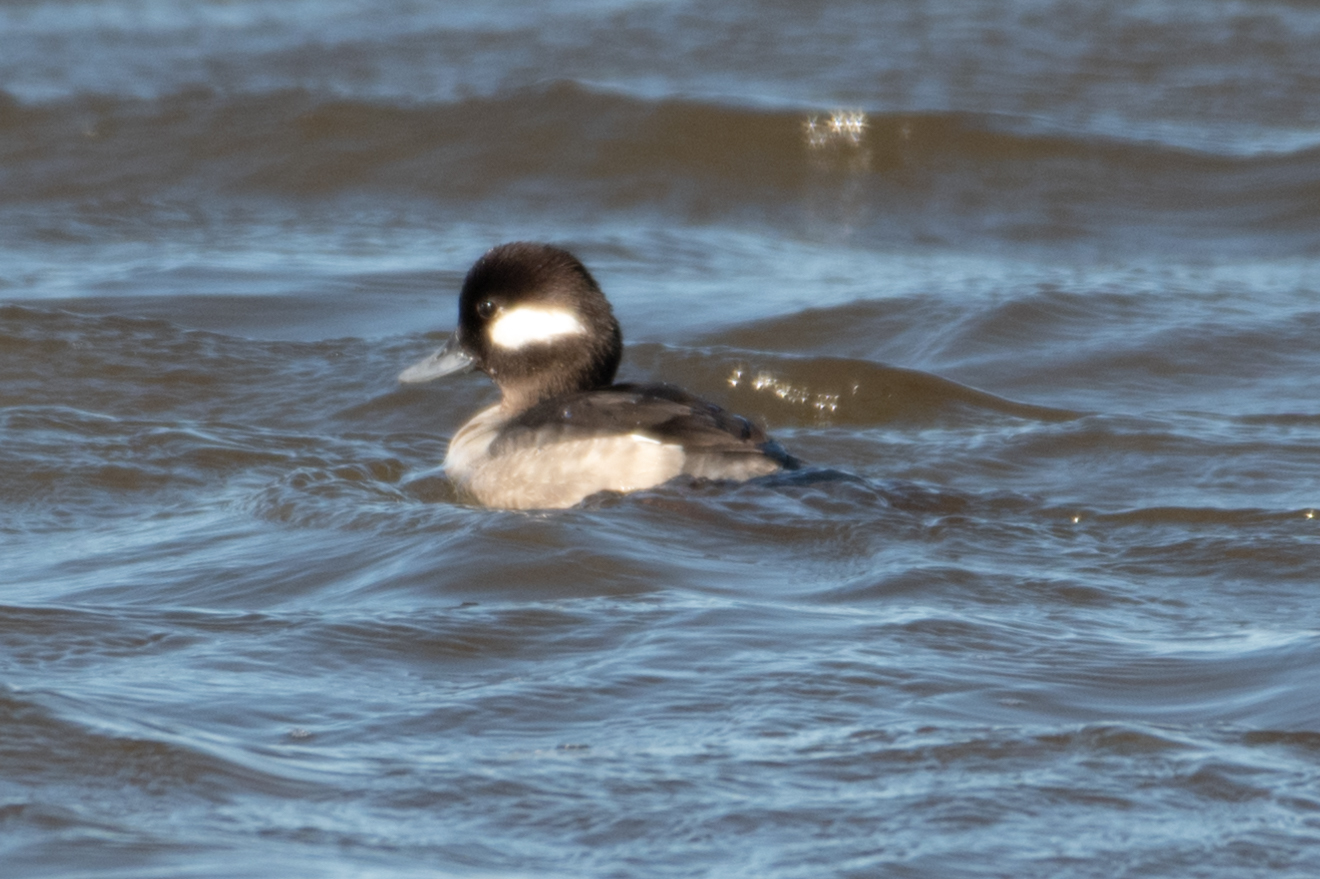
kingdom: Animalia
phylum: Chordata
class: Aves
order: Anseriformes
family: Anatidae
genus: Bucephala
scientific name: Bucephala albeola
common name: Bufflehead
